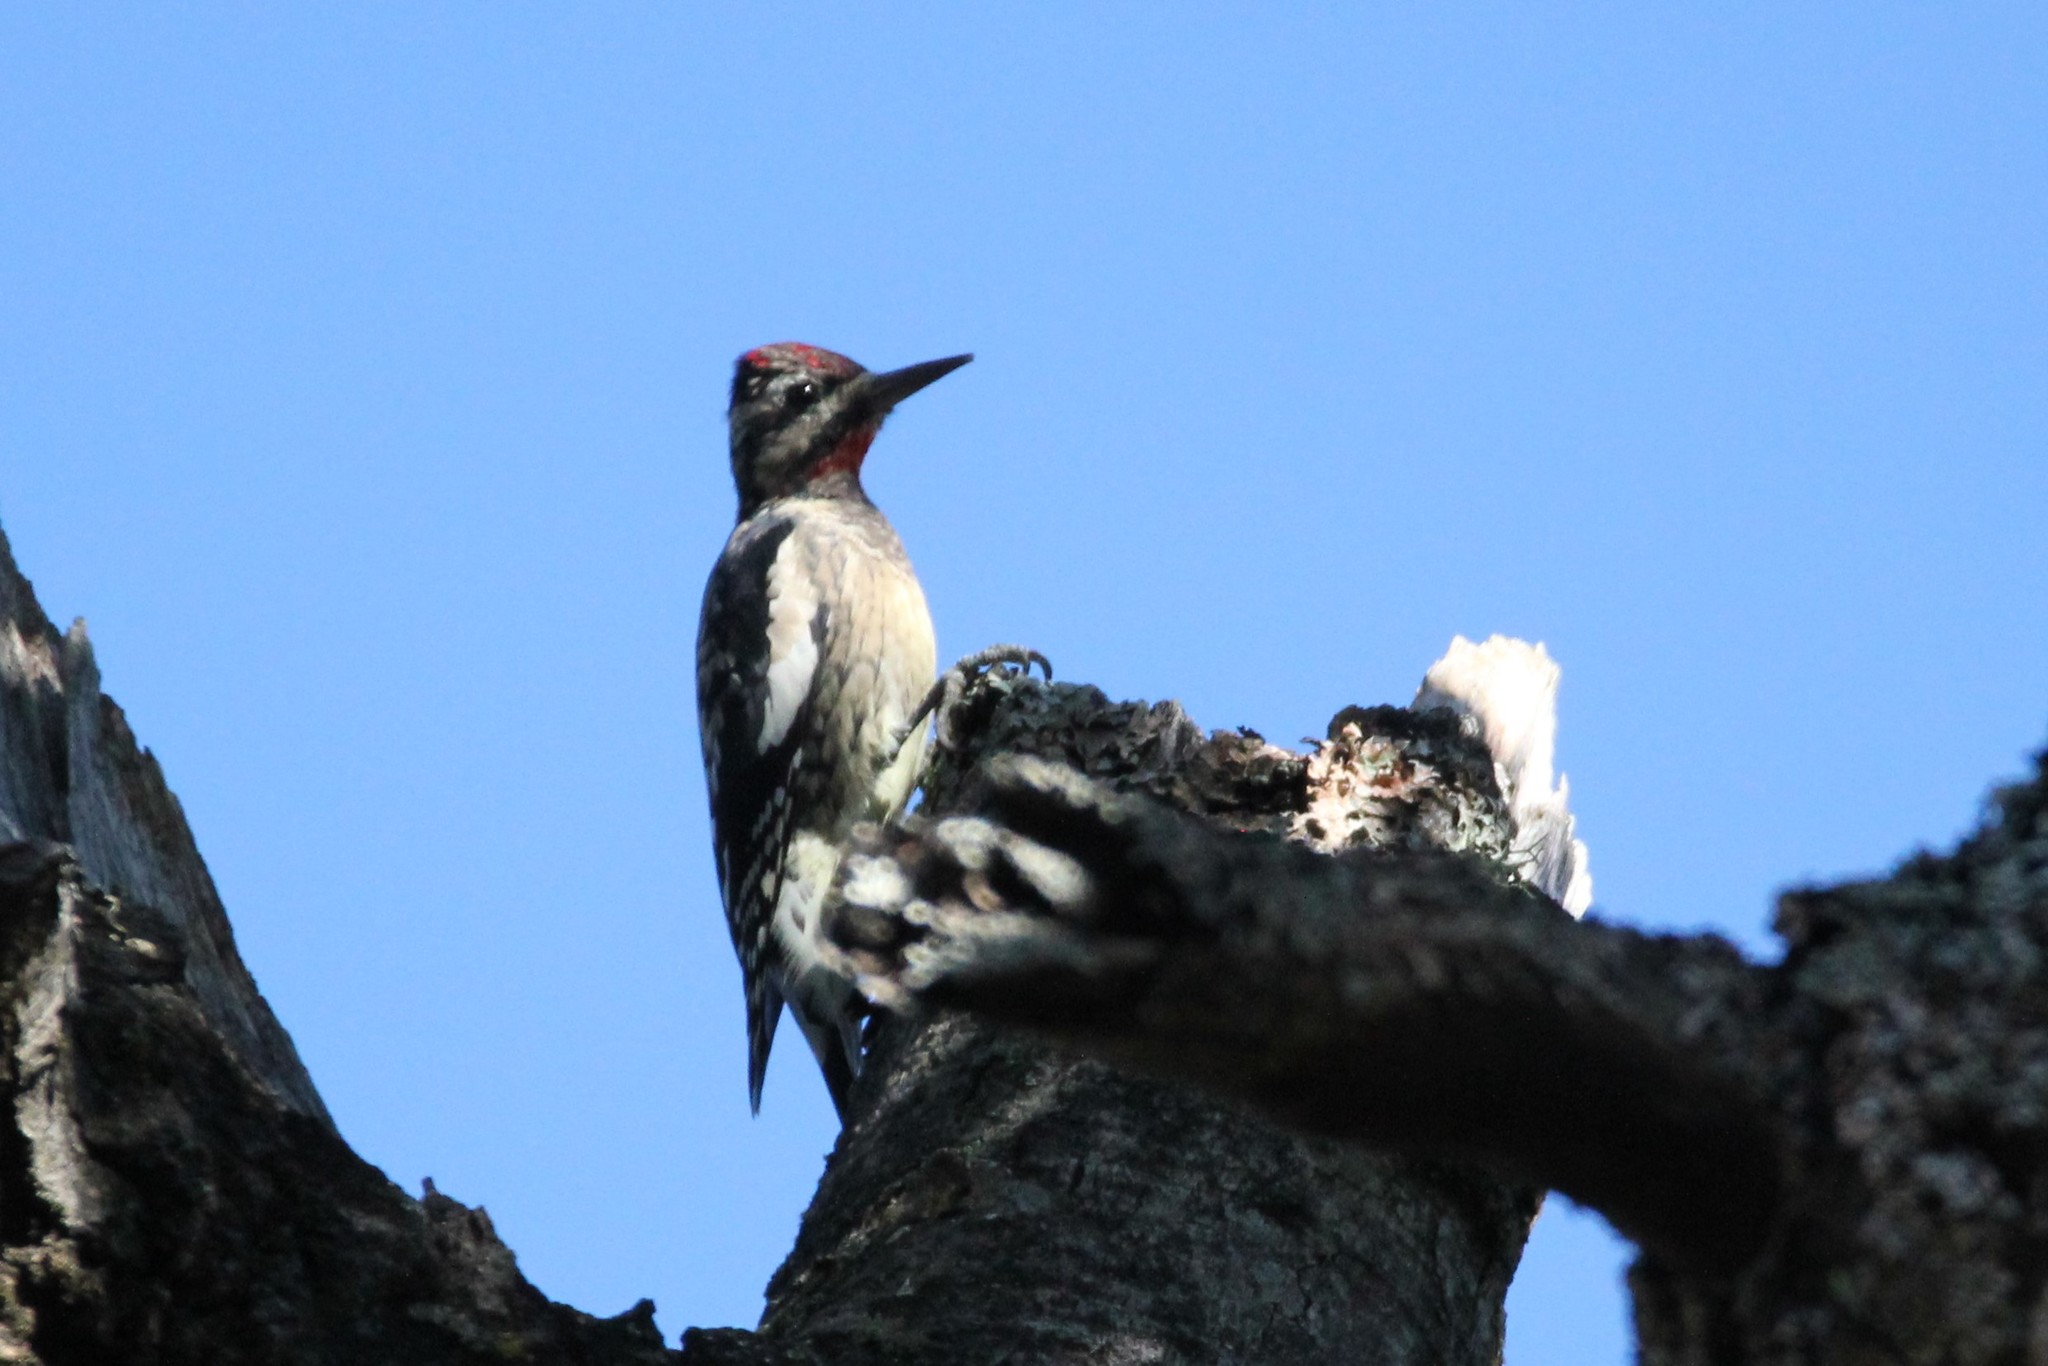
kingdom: Animalia
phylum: Chordata
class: Aves
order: Piciformes
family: Picidae
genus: Sphyrapicus
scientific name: Sphyrapicus varius
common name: Yellow-bellied sapsucker
